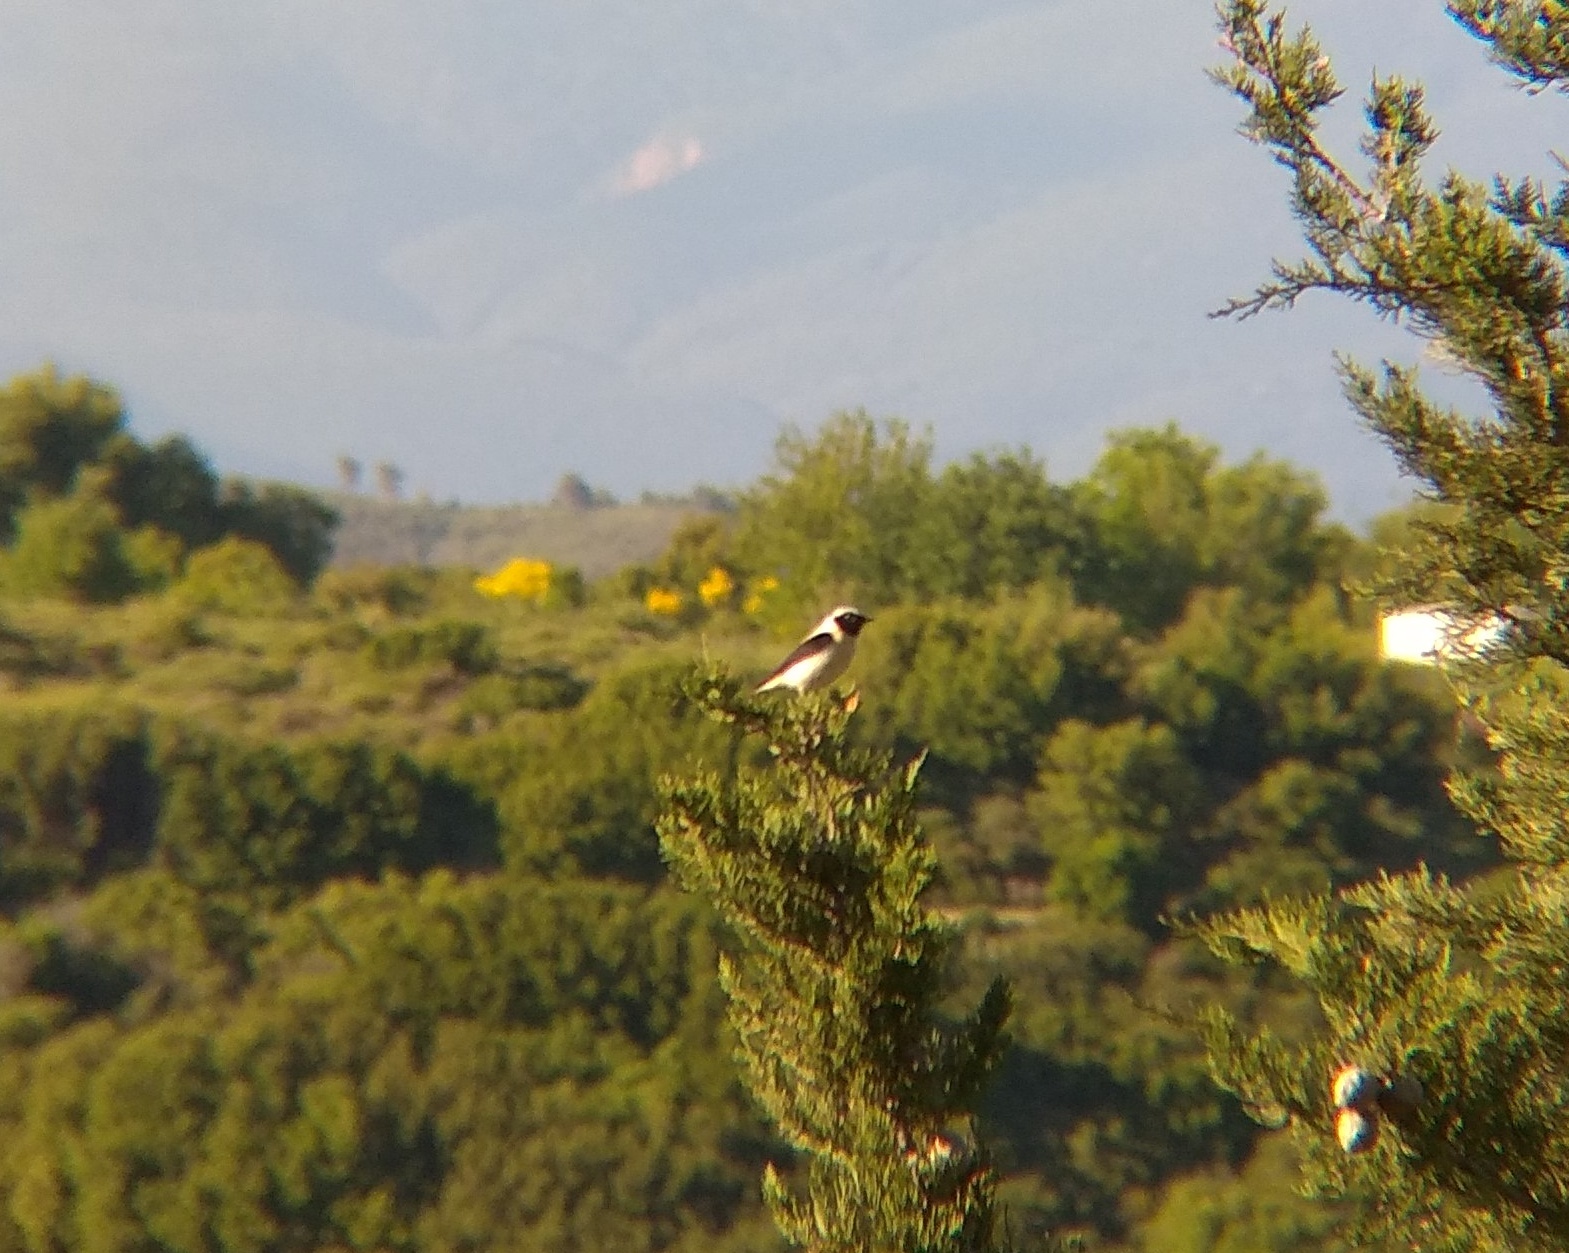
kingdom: Animalia
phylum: Chordata
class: Aves
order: Passeriformes
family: Muscicapidae
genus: Oenanthe
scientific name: Oenanthe hispanica
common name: Black-eared wheatear
